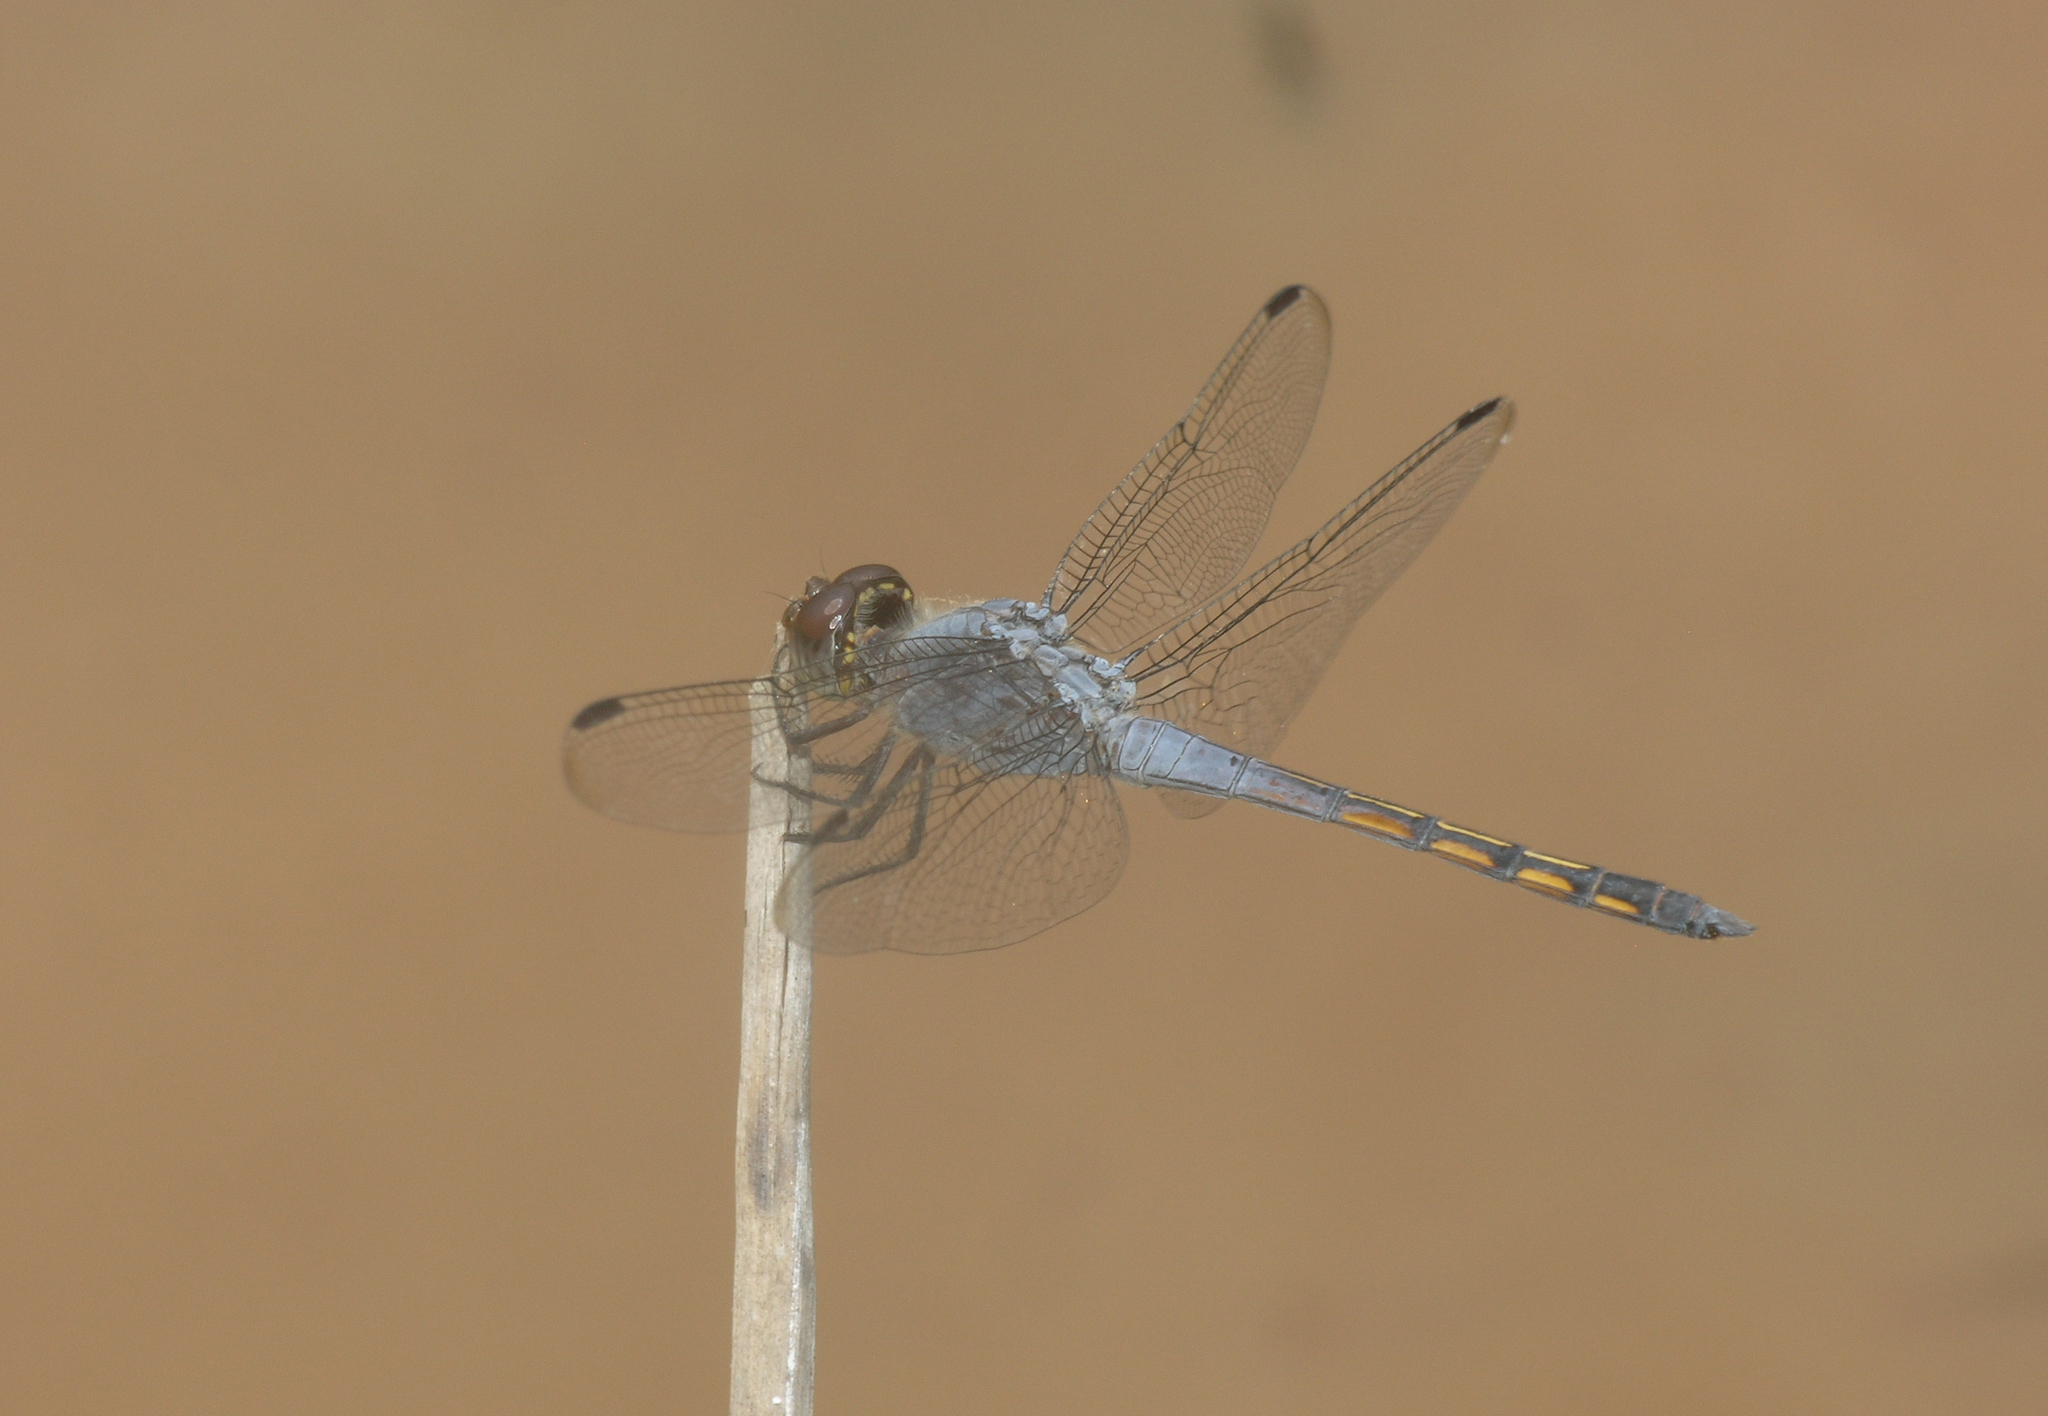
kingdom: Animalia
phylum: Arthropoda
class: Insecta
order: Odonata
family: Libellulidae
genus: Potamarcha
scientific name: Potamarcha congener
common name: Blue chaser
